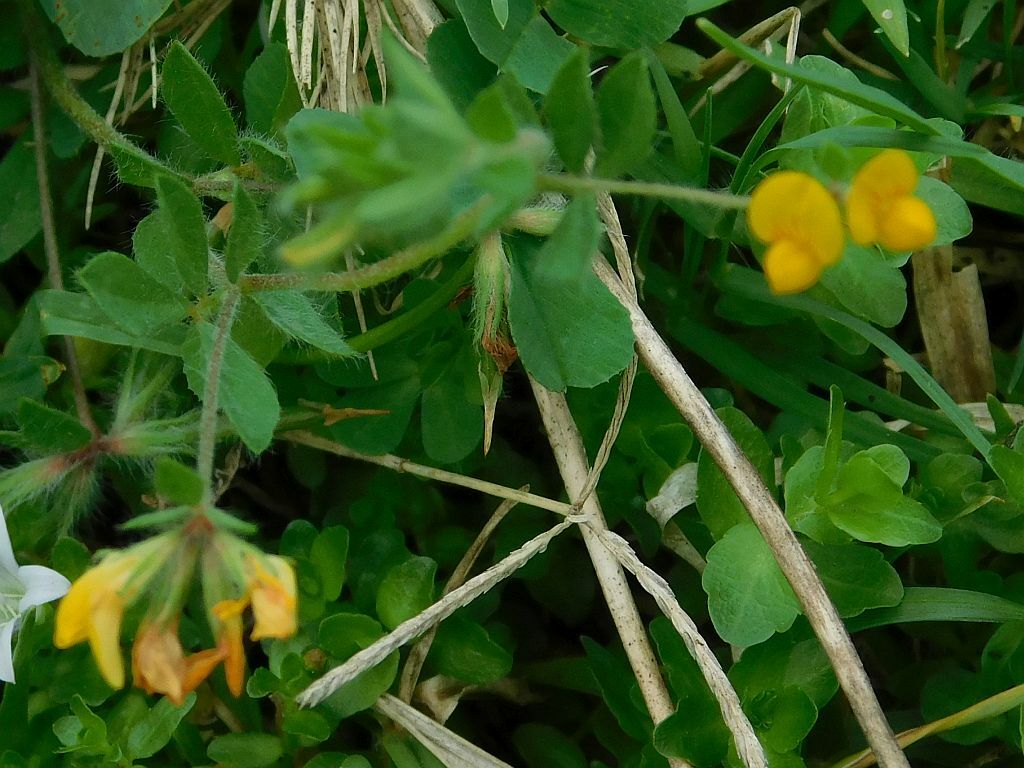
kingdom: Plantae
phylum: Tracheophyta
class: Magnoliopsida
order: Fabales
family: Fabaceae
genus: Lotus
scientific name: Lotus subbiflorus
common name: Hairy bird's-foot trefoil
